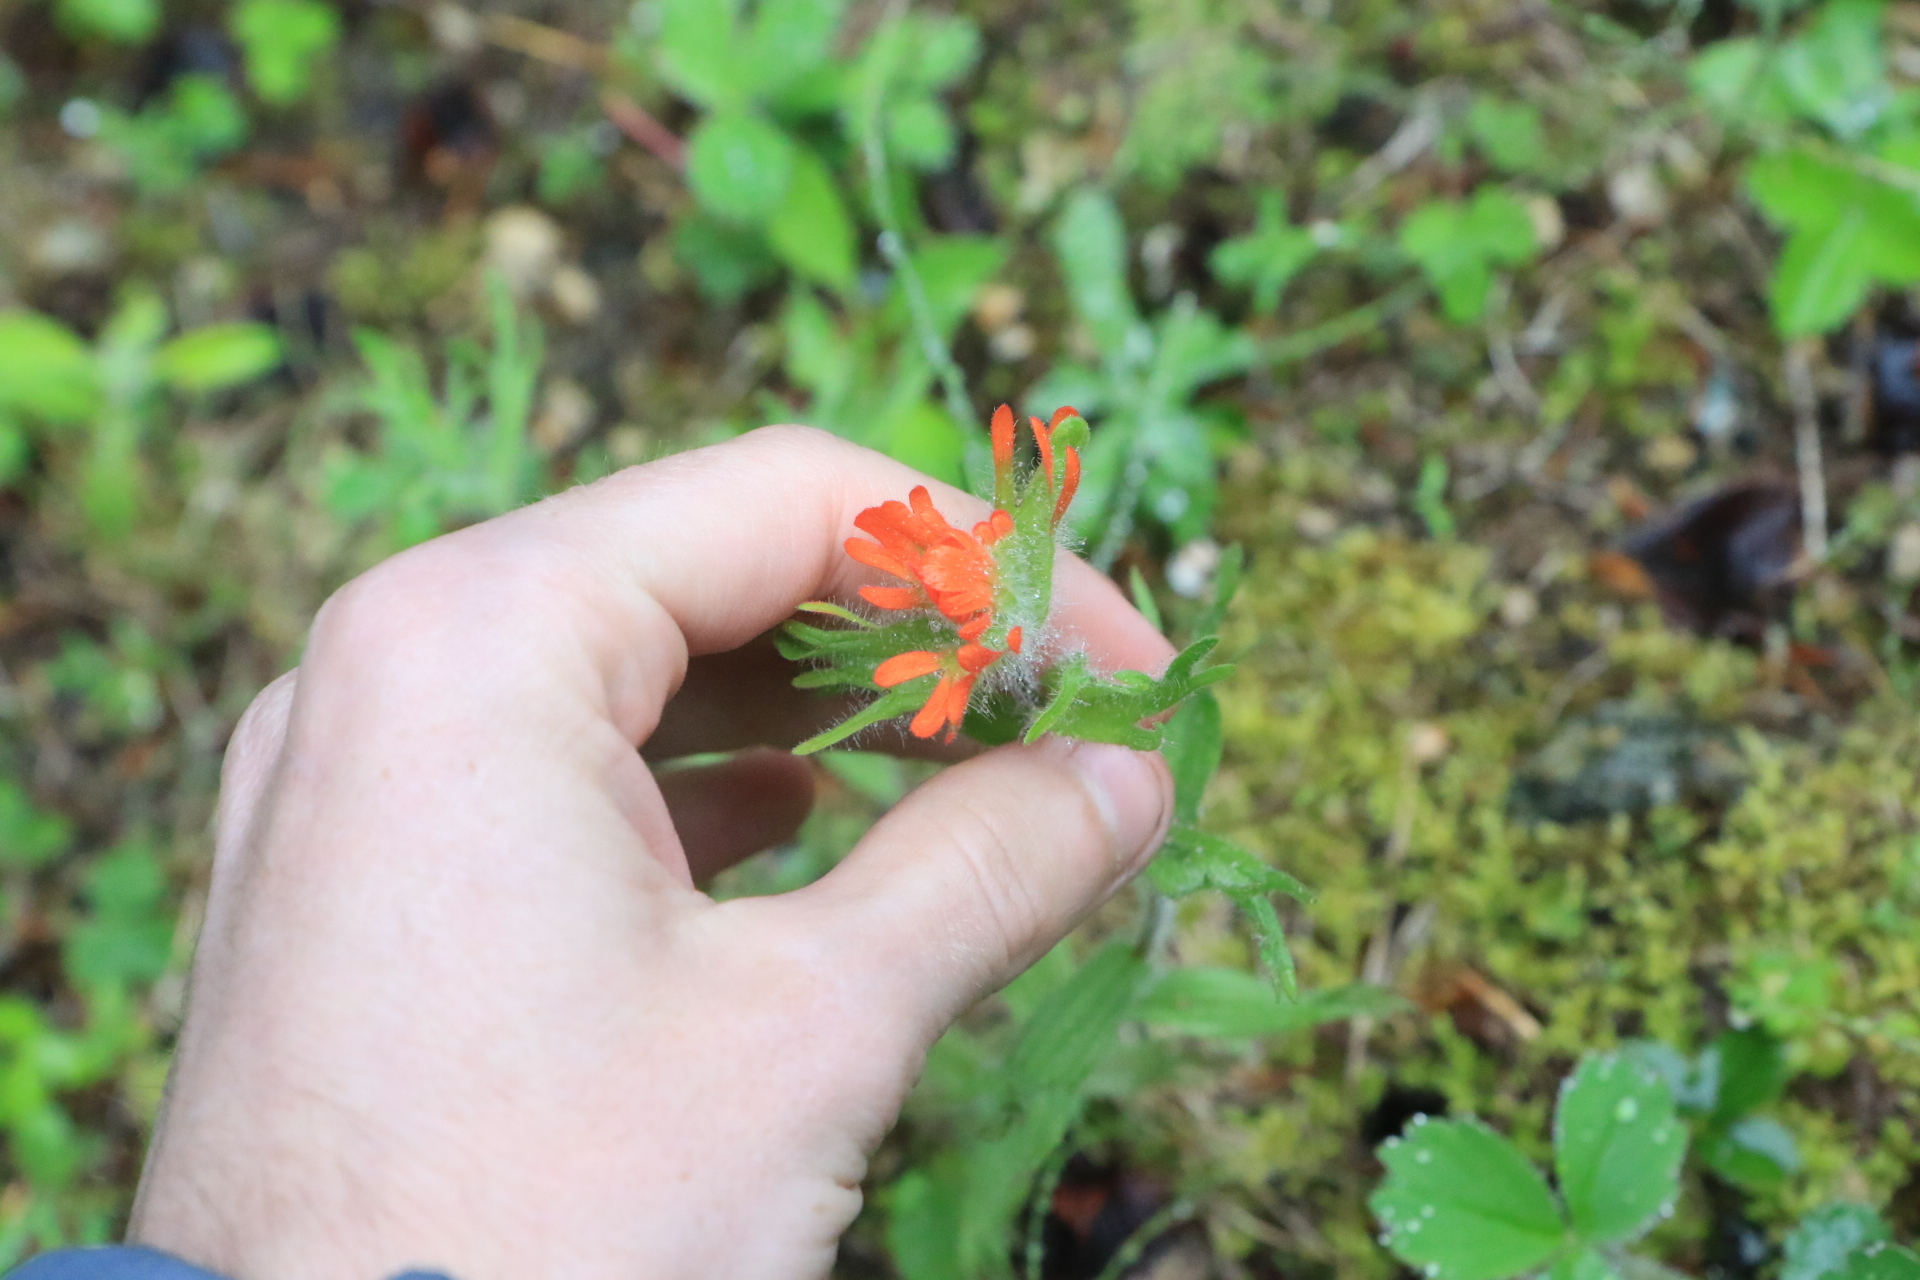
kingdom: Plantae
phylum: Tracheophyta
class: Magnoliopsida
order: Lamiales
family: Orobanchaceae
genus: Castilleja
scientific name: Castilleja hispida
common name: Bristly paintbrush
